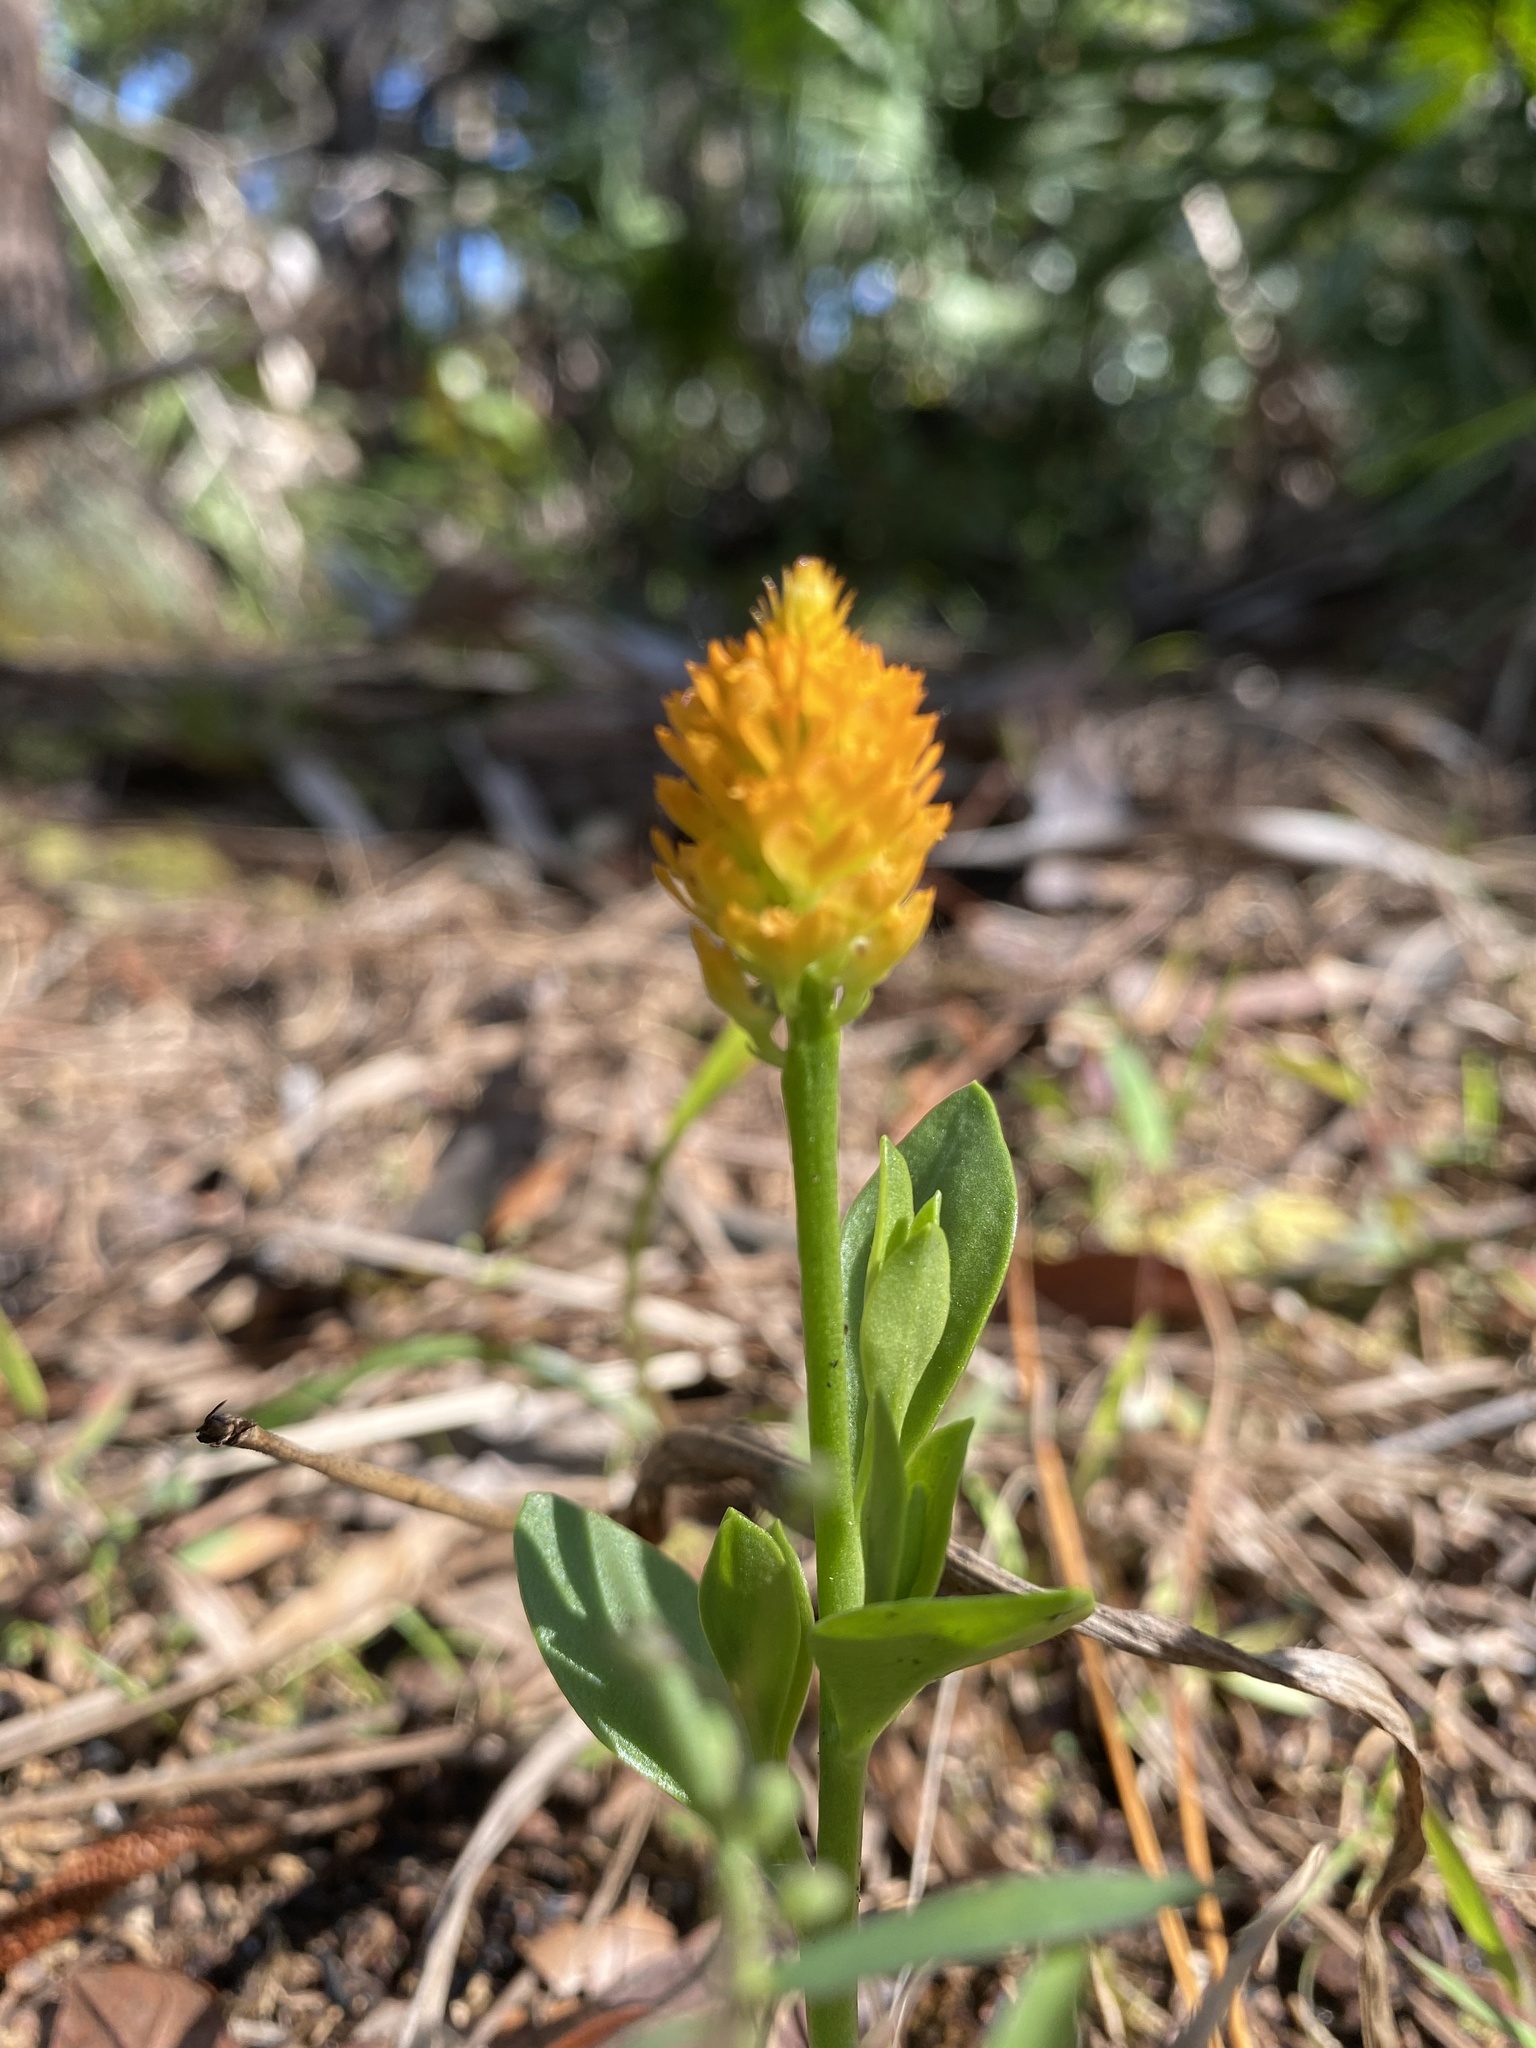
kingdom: Plantae
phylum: Tracheophyta
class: Magnoliopsida
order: Fabales
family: Polygalaceae
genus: Polygala
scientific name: Polygala lutea
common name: Orange milkwort
